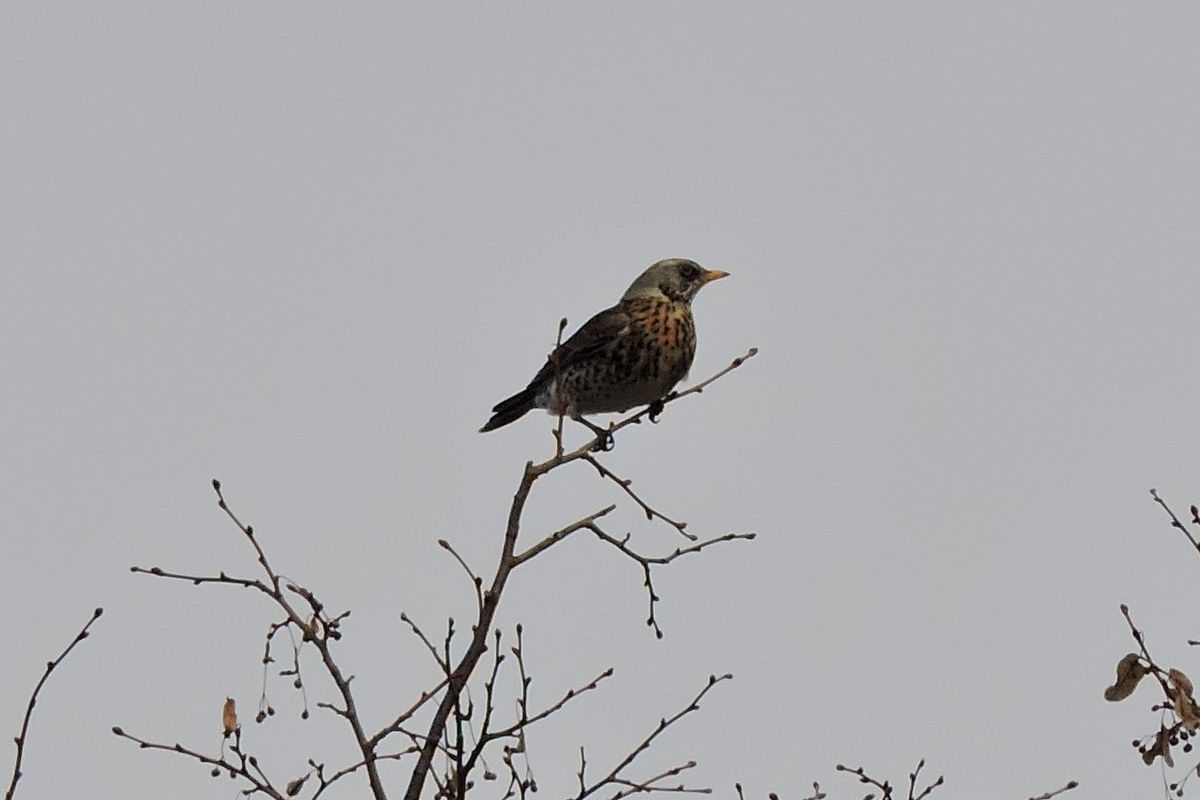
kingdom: Animalia
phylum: Chordata
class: Aves
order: Passeriformes
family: Turdidae
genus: Turdus
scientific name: Turdus pilaris
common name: Fieldfare
